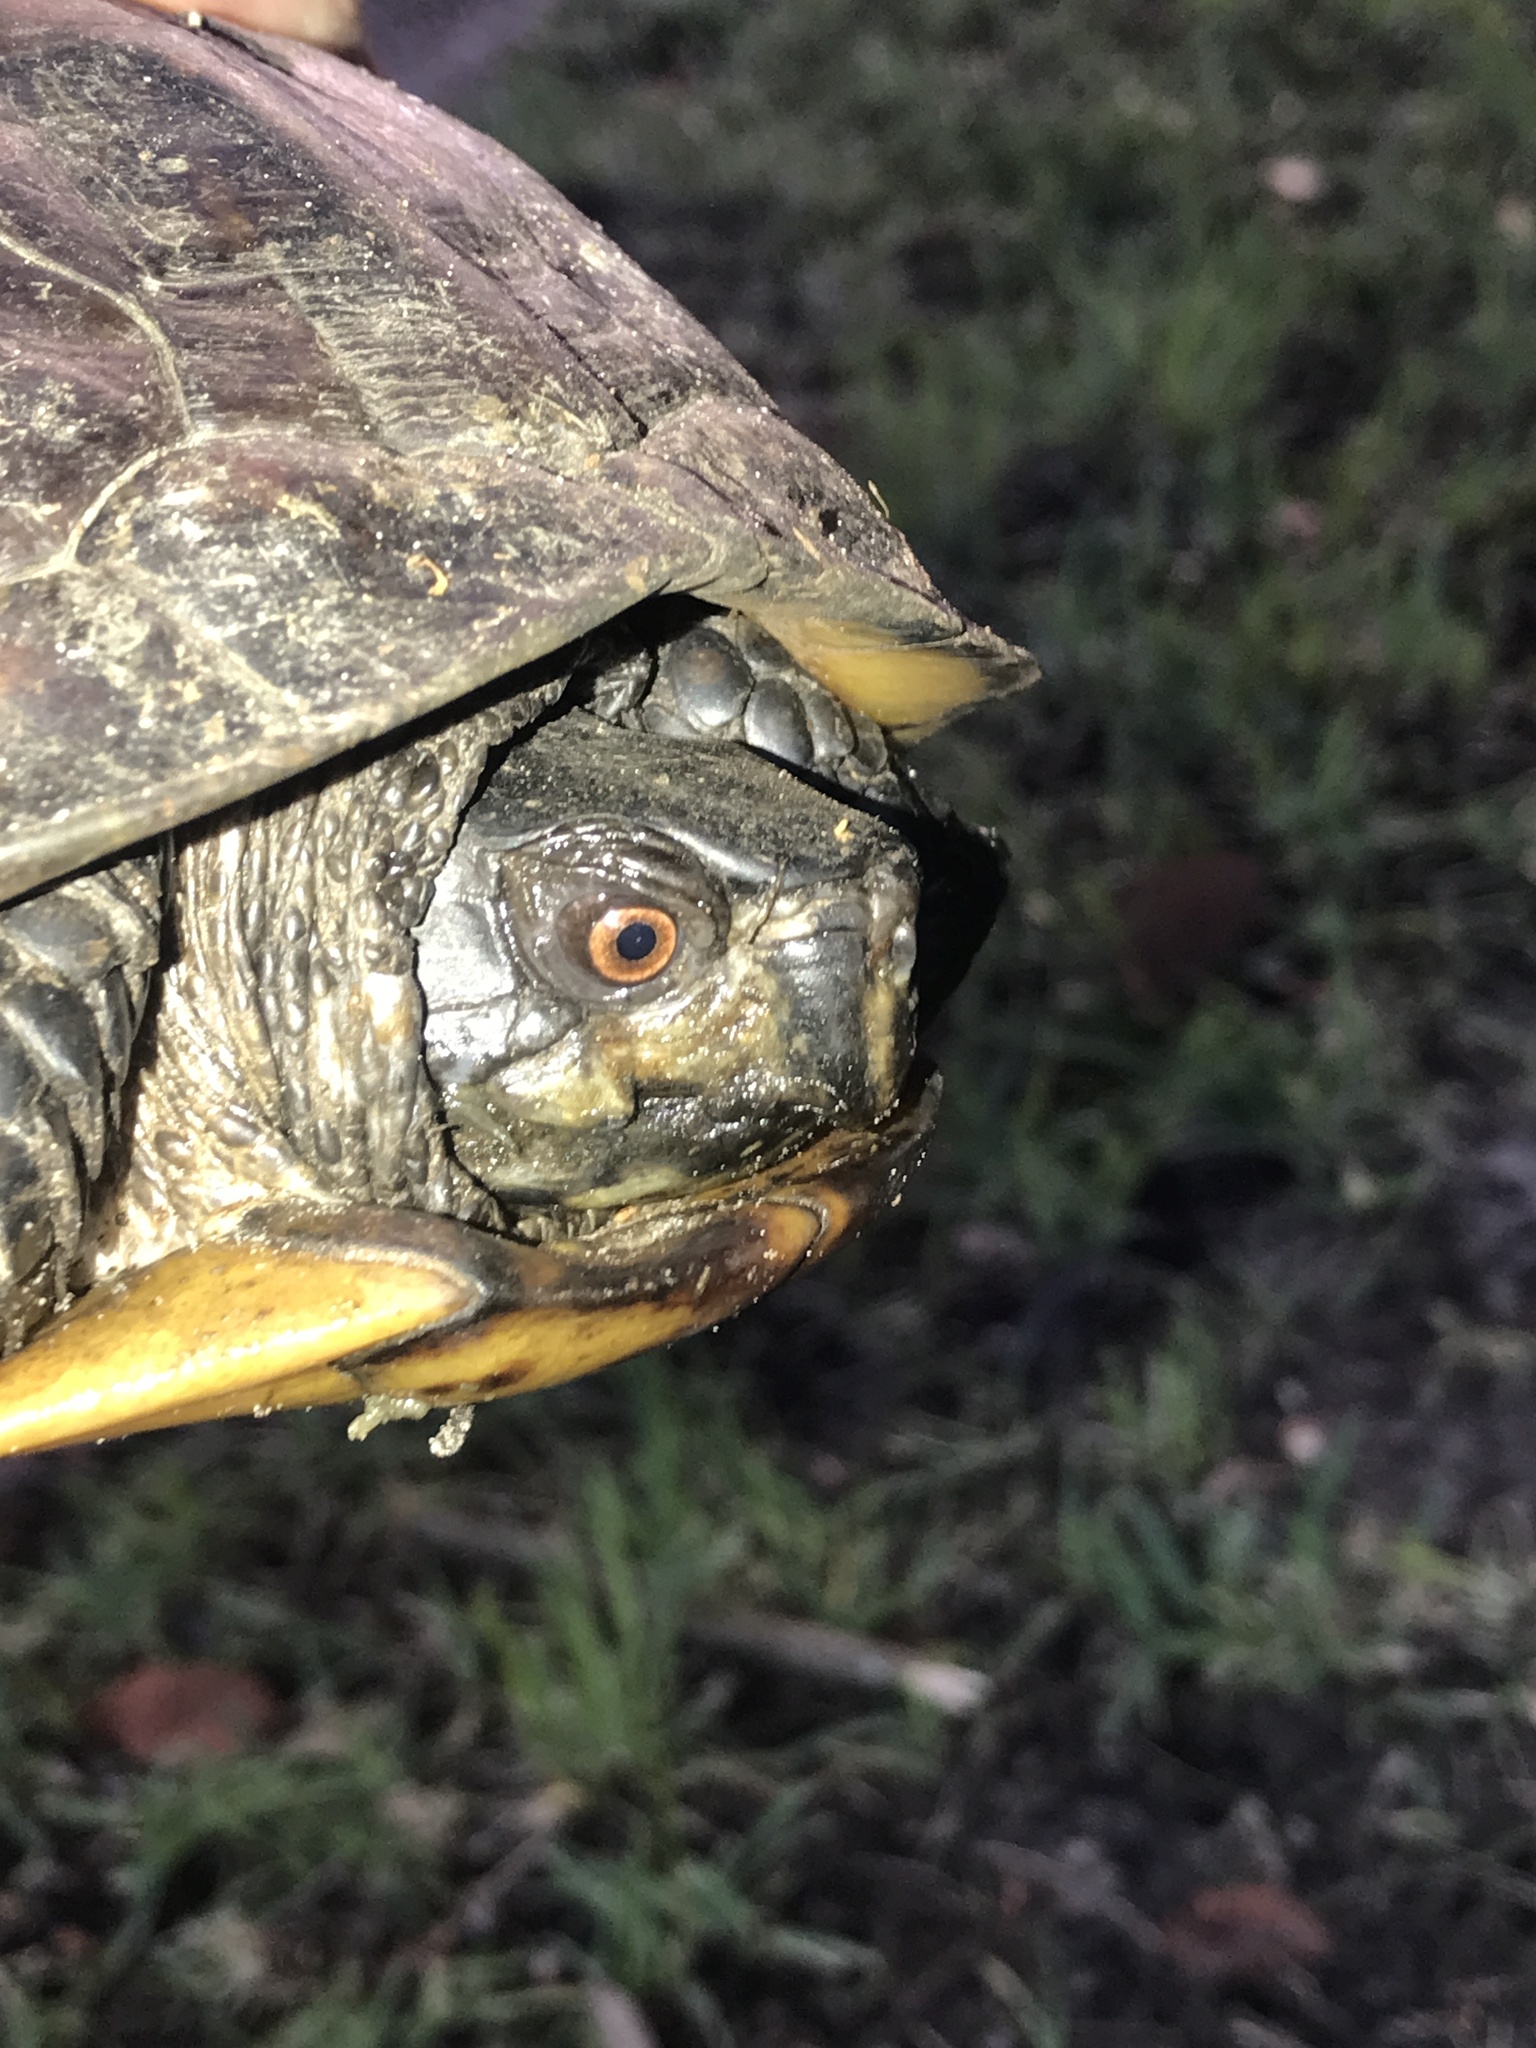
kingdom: Animalia
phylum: Chordata
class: Testudines
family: Emydidae
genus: Terrapene
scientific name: Terrapene carolina
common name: Common box turtle
